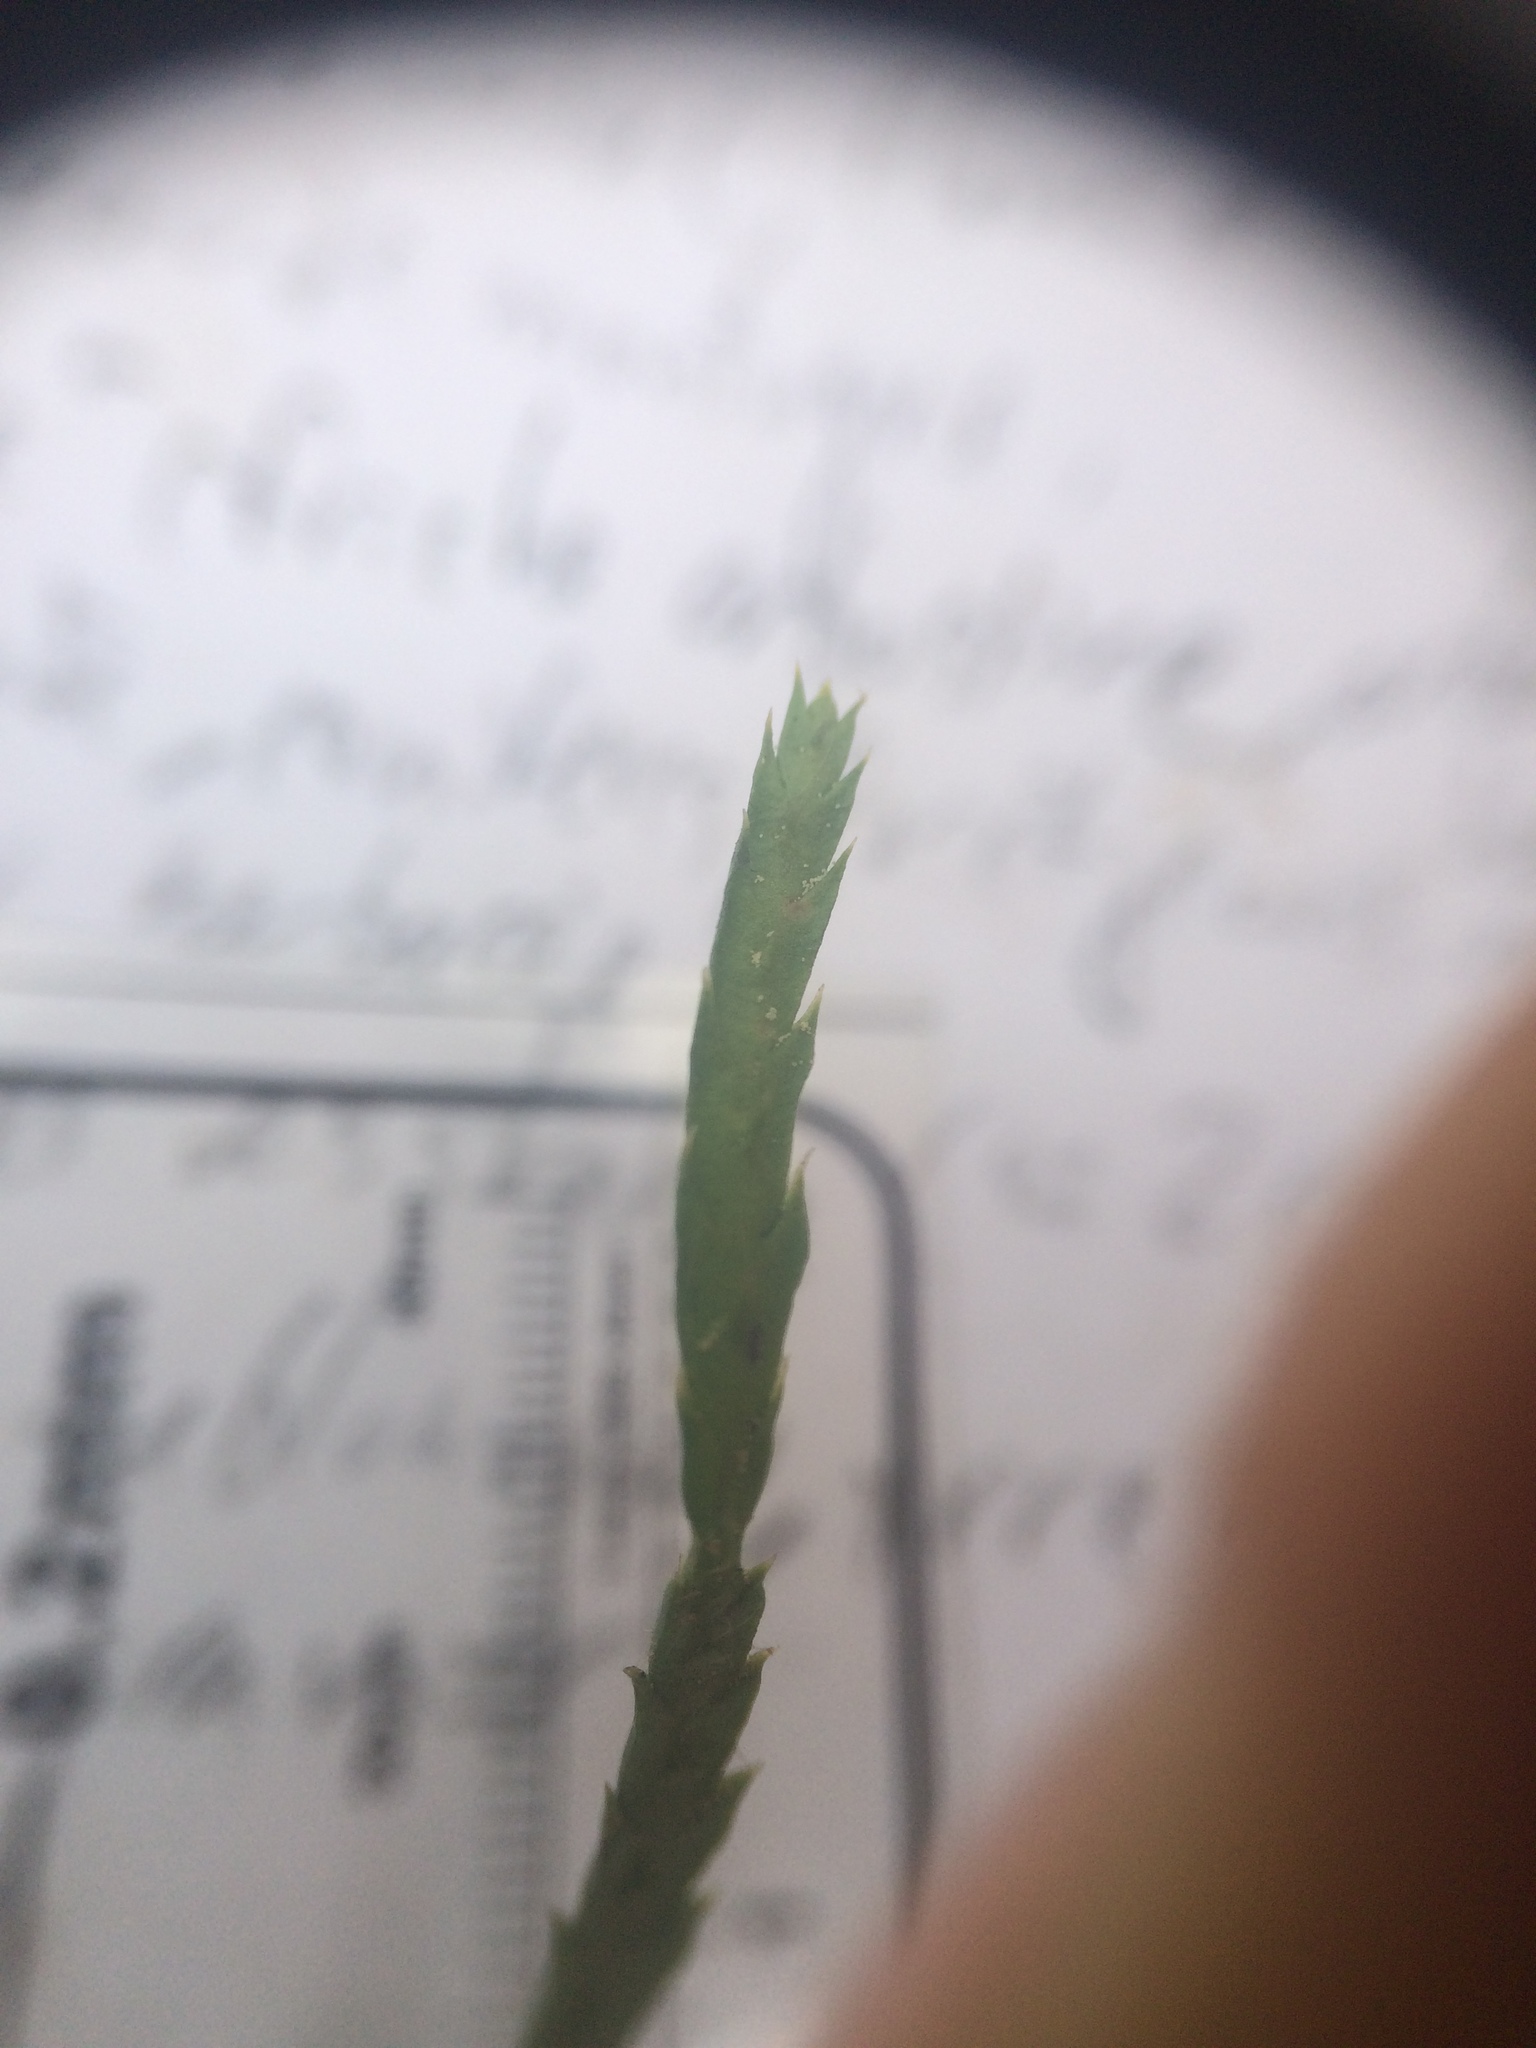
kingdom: Plantae
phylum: Tracheophyta
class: Lycopodiopsida
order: Lycopodiales
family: Lycopodiaceae
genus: Diphasiastrum
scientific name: Diphasiastrum complanatum
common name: Northern running-pine
